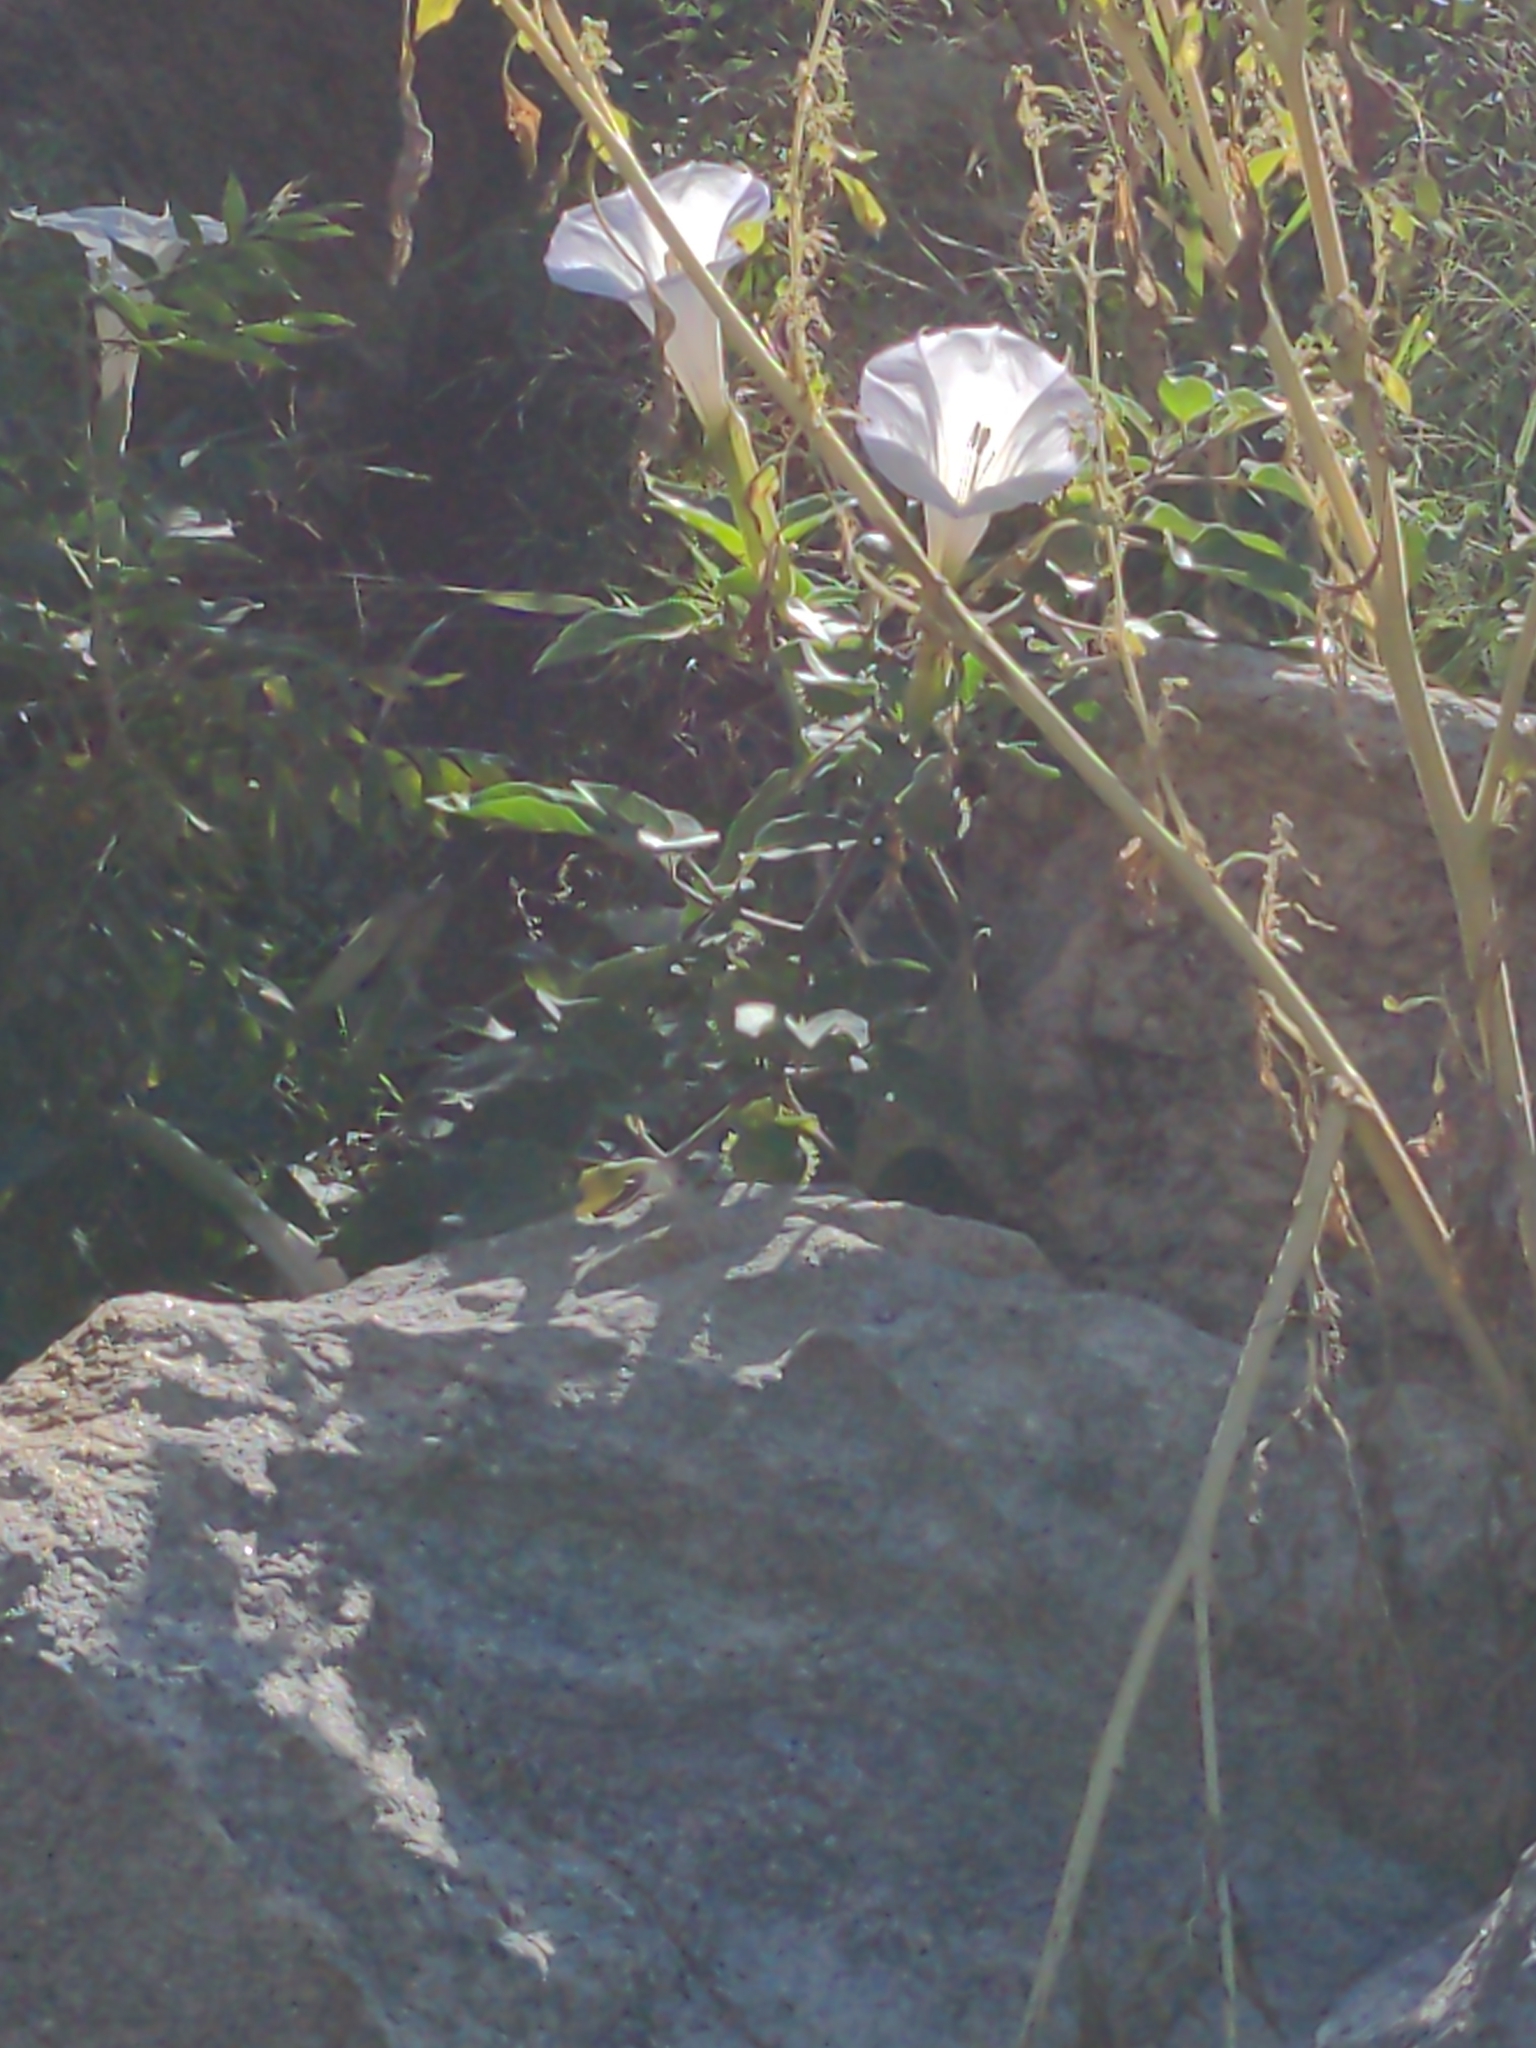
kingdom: Plantae
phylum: Tracheophyta
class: Magnoliopsida
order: Solanales
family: Solanaceae
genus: Datura
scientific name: Datura wrightii
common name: Sacred thorn-apple
